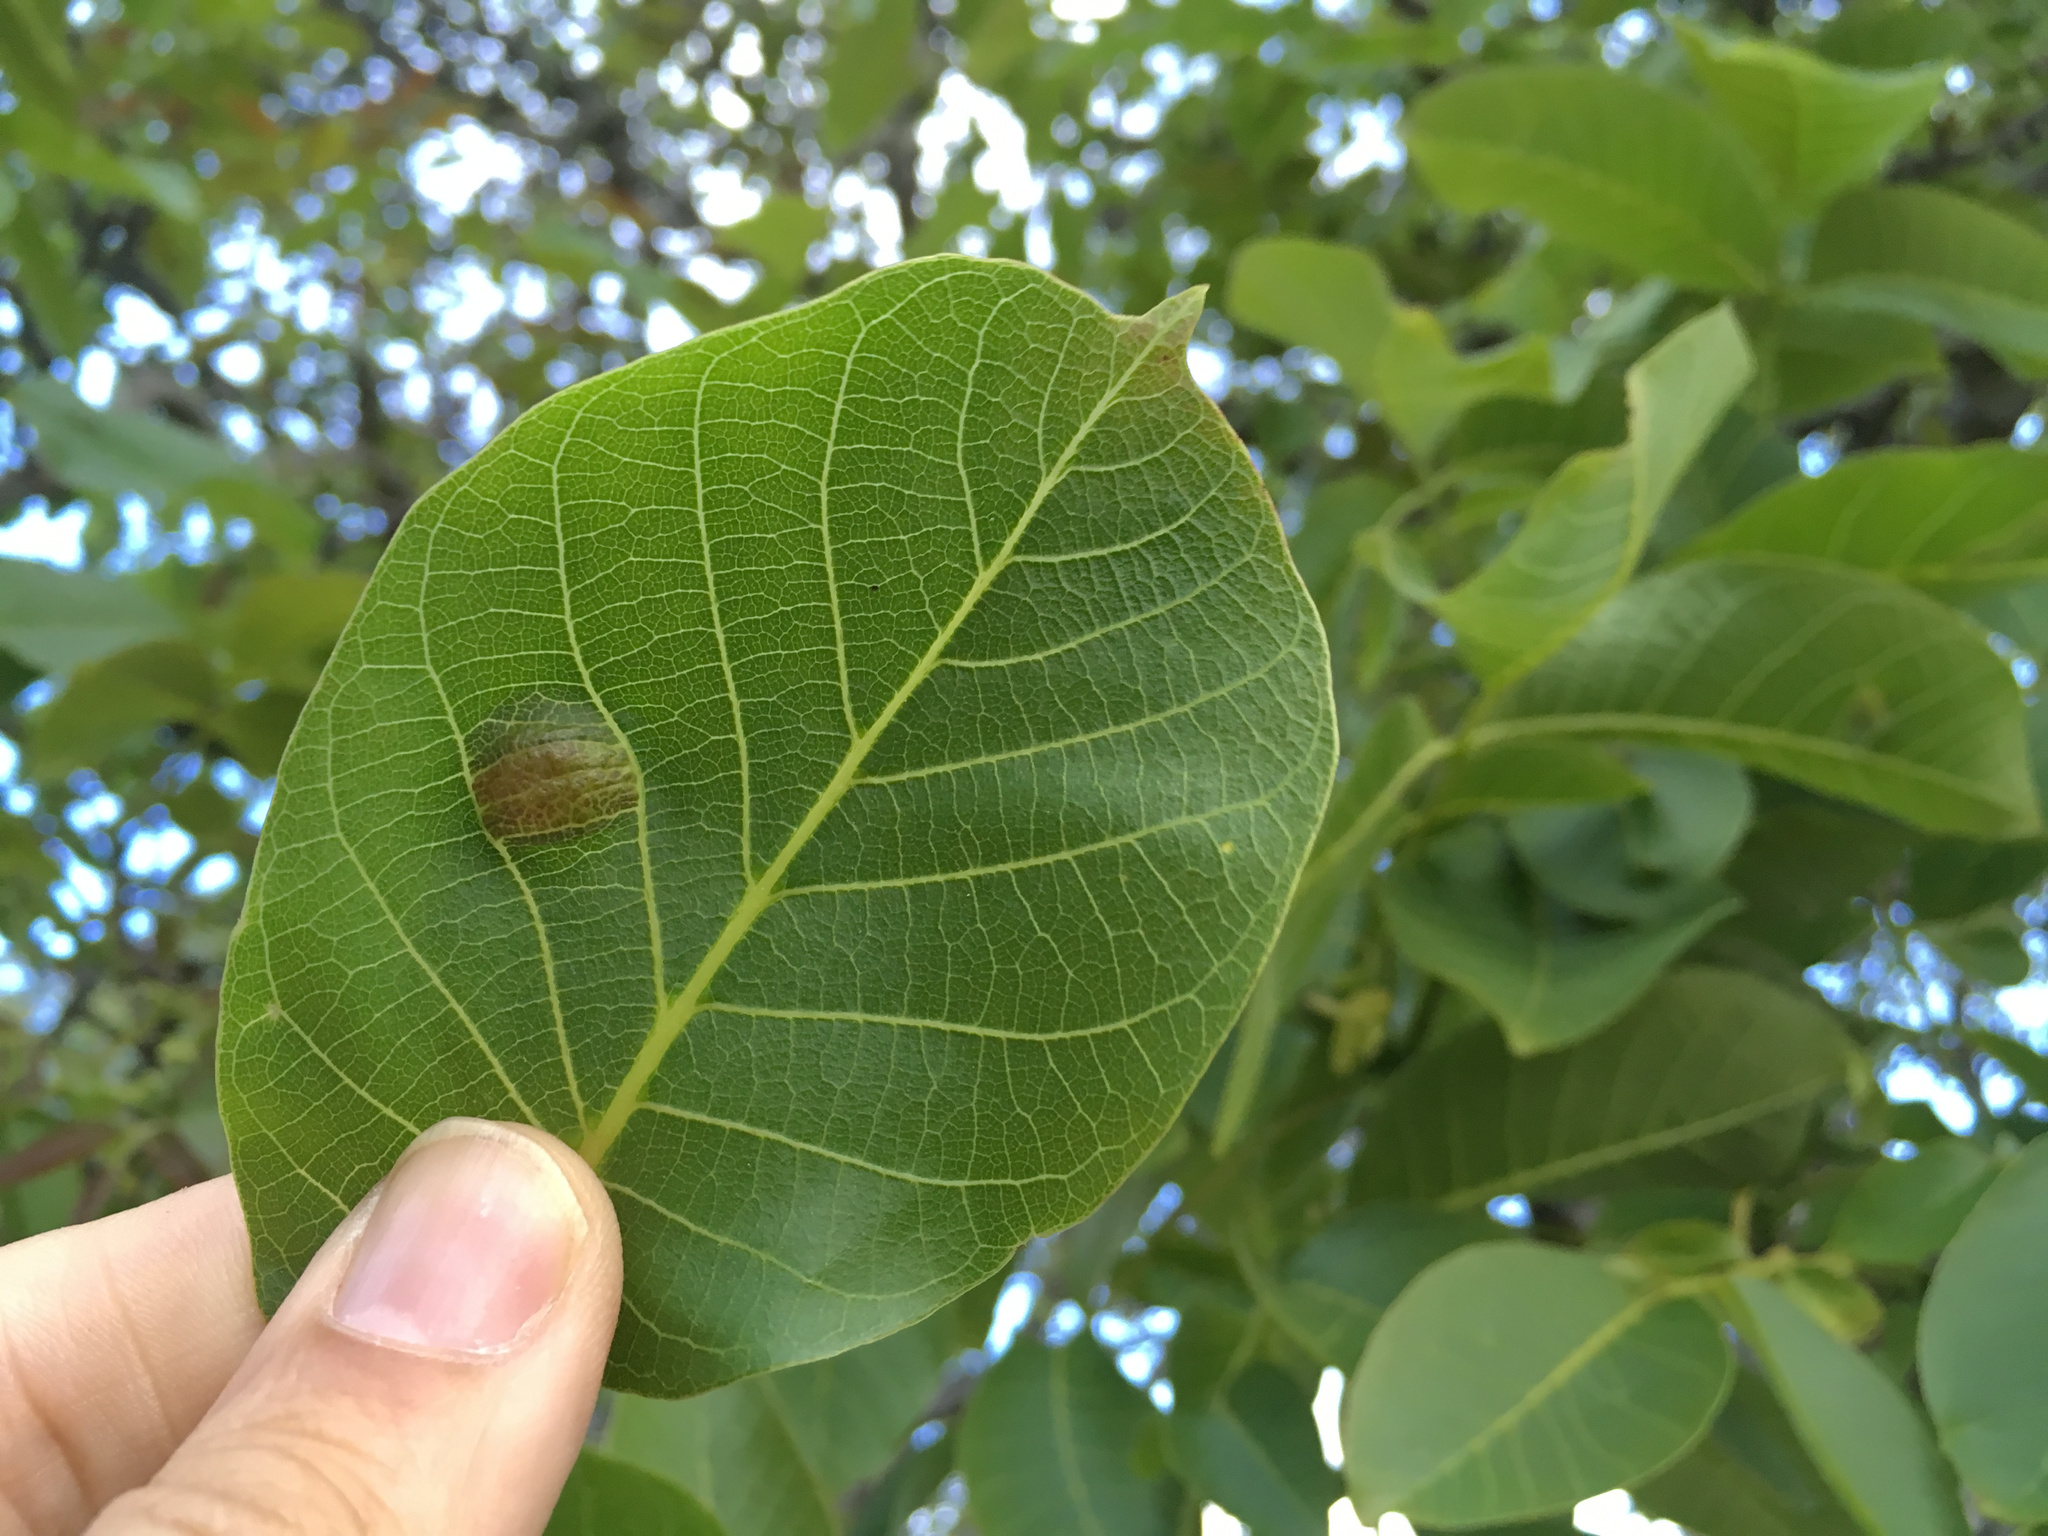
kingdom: Animalia
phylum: Arthropoda
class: Arachnida
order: Trombidiformes
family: Eriophyidae
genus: Aceria
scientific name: Aceria erinea
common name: Persian walnut erineum mite
